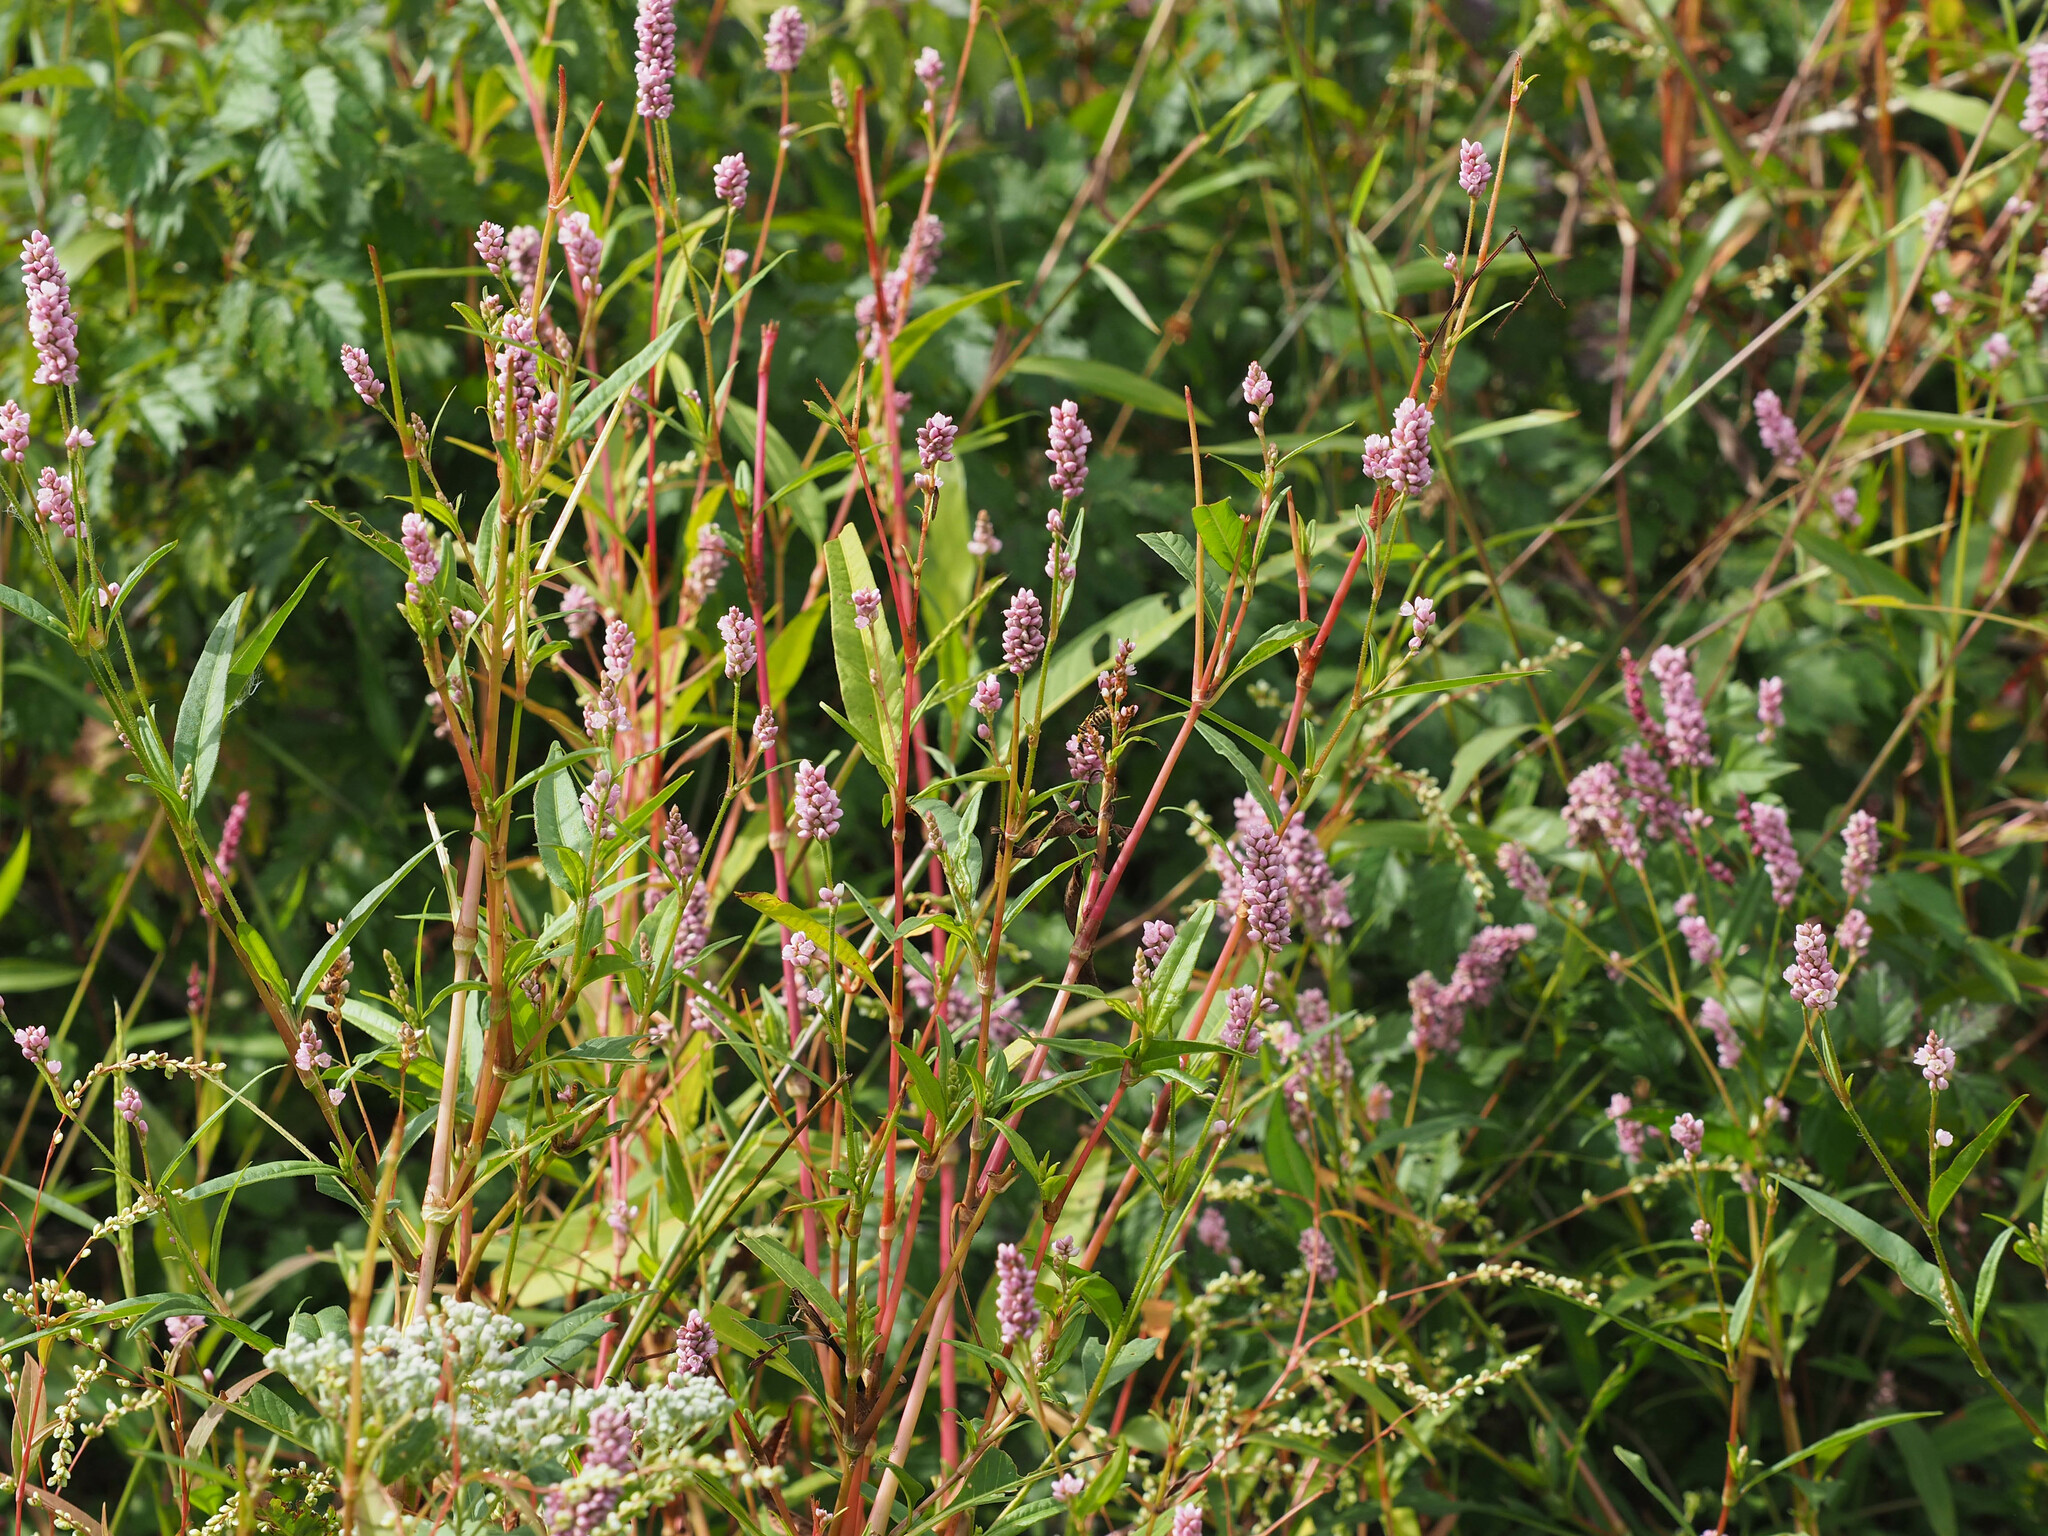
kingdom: Plantae
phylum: Tracheophyta
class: Magnoliopsida
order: Caryophyllales
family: Polygonaceae
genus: Persicaria
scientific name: Persicaria pensylvanica
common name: Pinkweed
